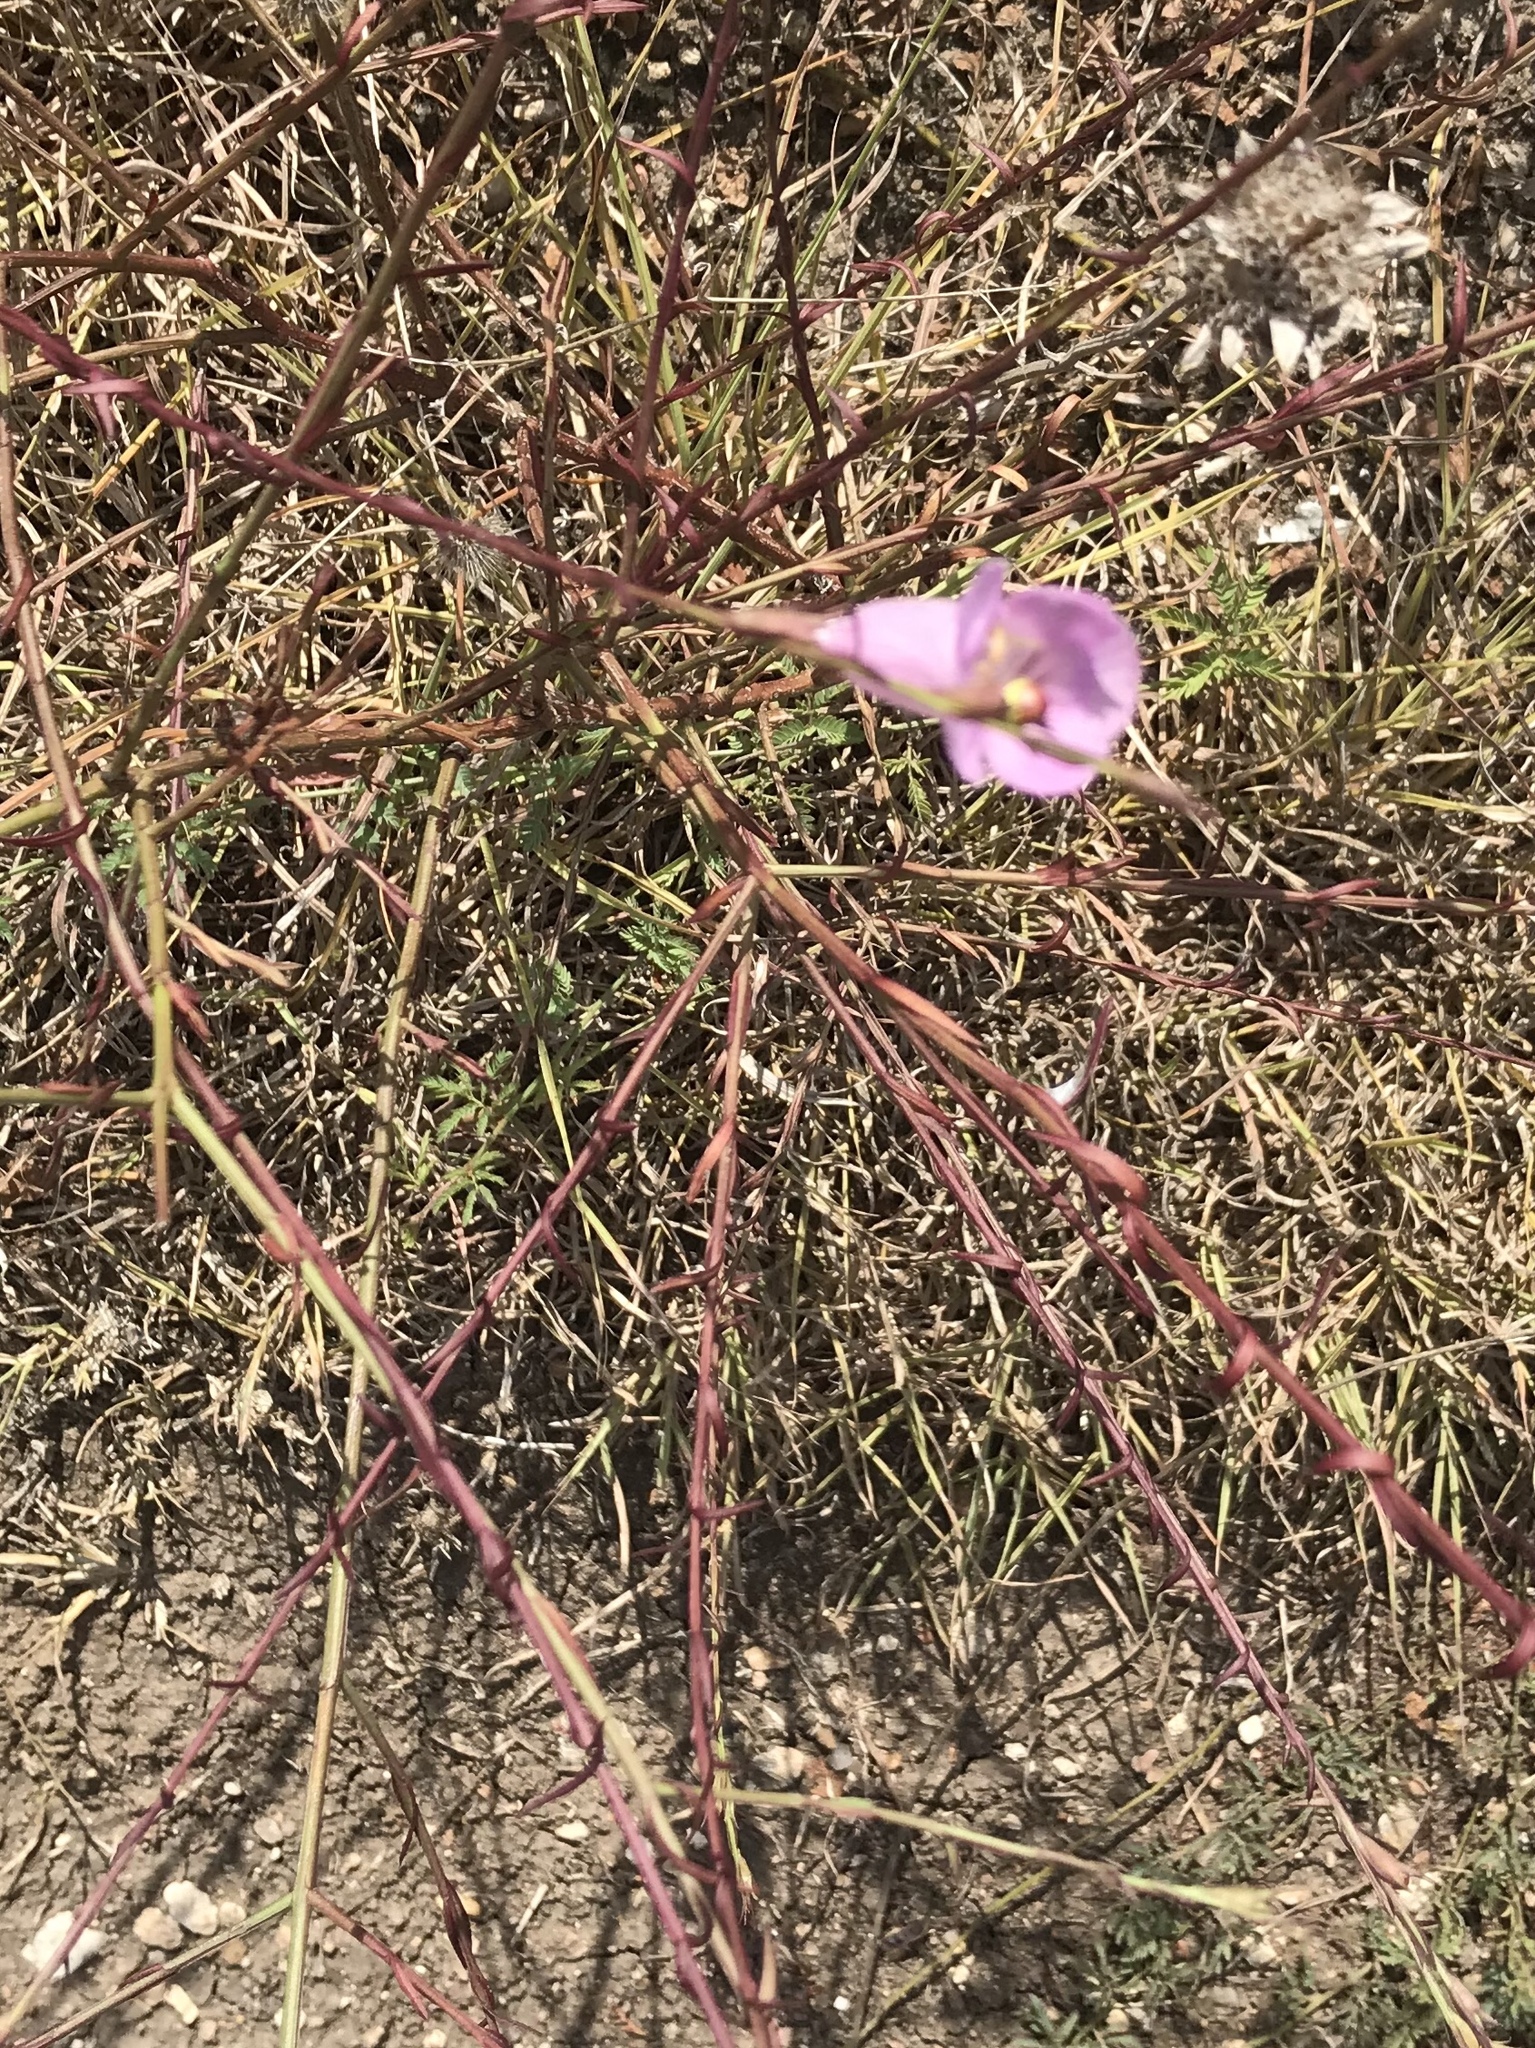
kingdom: Plantae
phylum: Tracheophyta
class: Magnoliopsida
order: Lamiales
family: Orobanchaceae
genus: Agalinis
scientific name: Agalinis heterophylla
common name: Prairie agalinis
